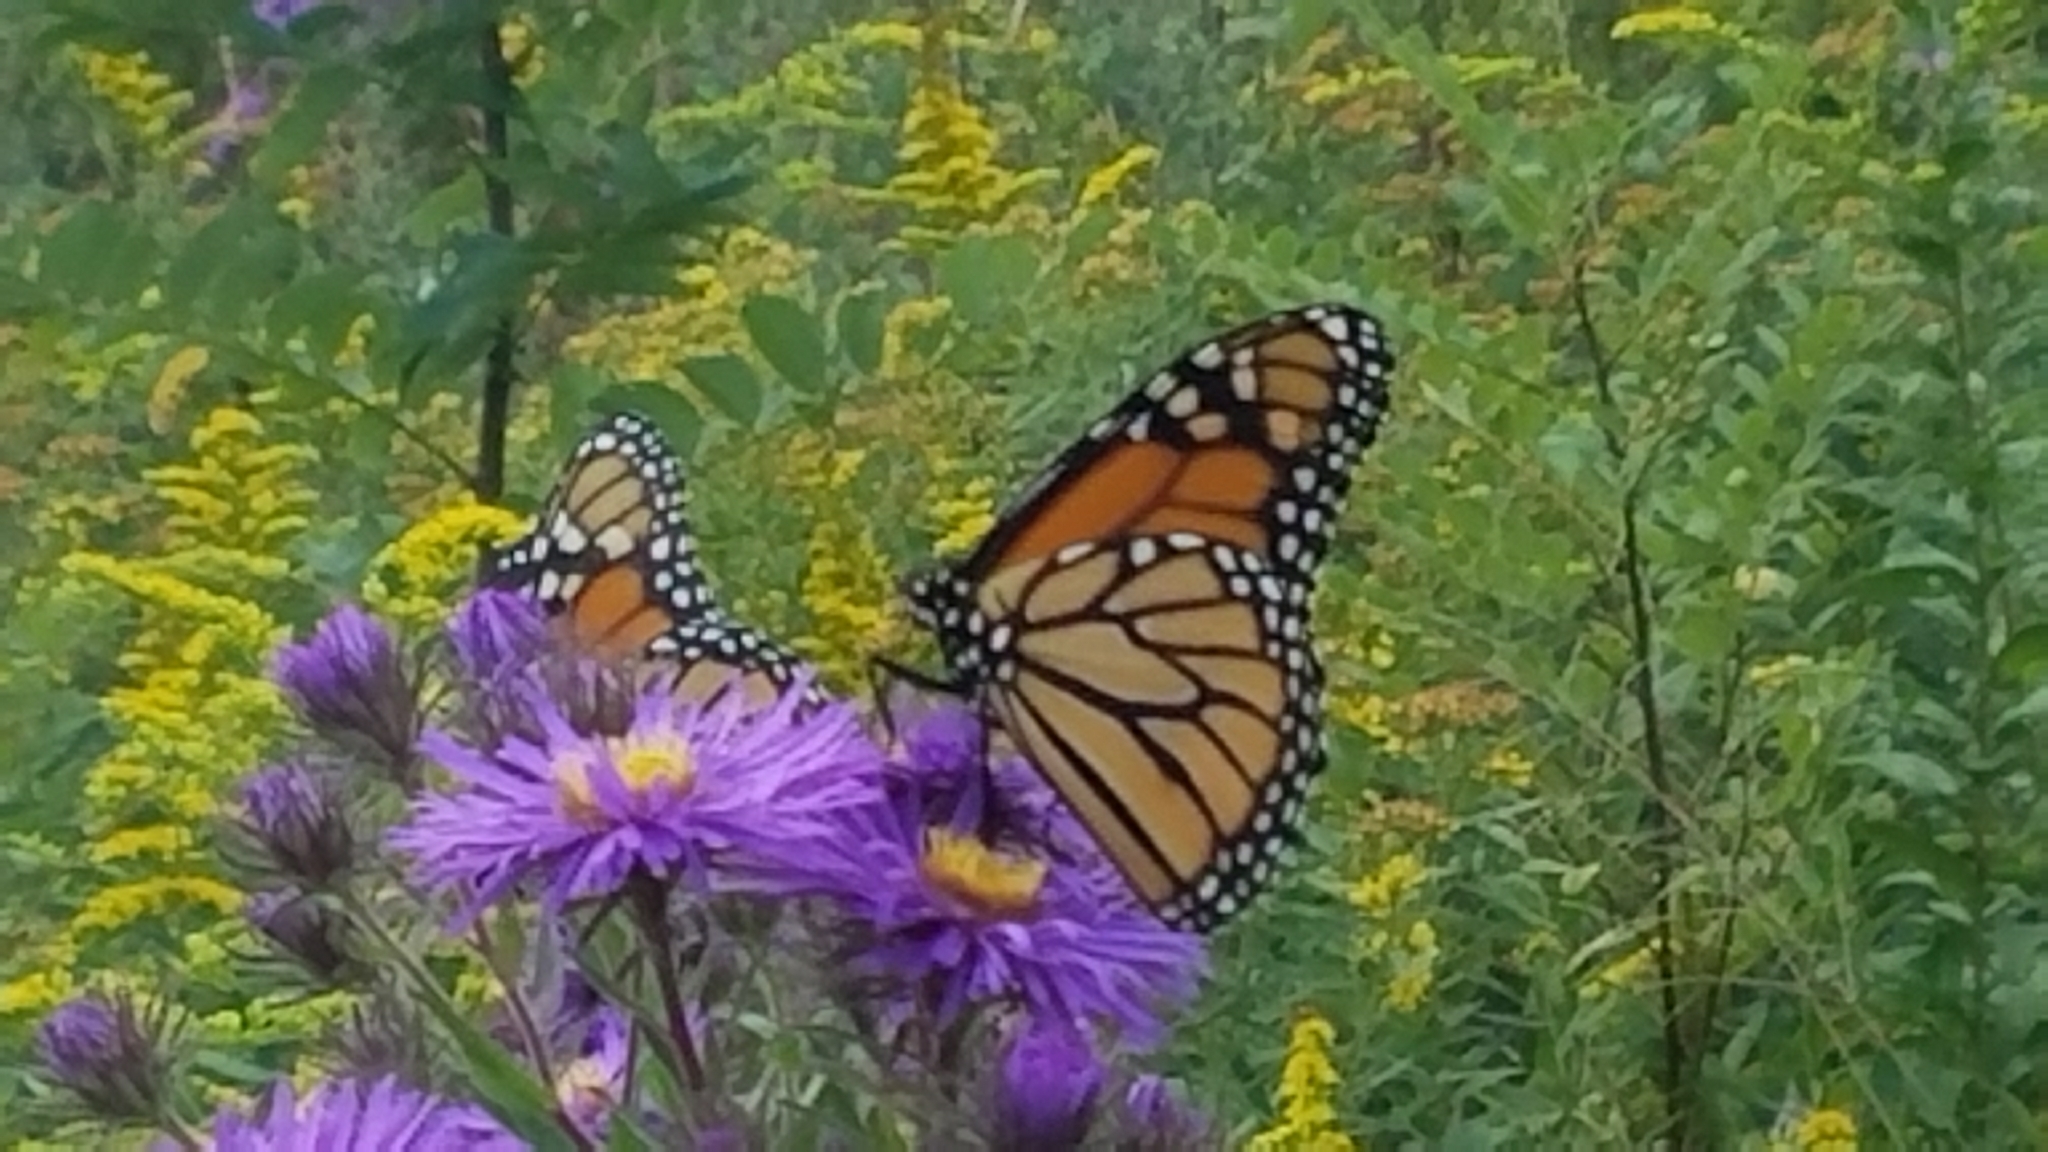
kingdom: Animalia
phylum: Arthropoda
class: Insecta
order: Lepidoptera
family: Nymphalidae
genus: Danaus
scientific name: Danaus plexippus
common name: Monarch
